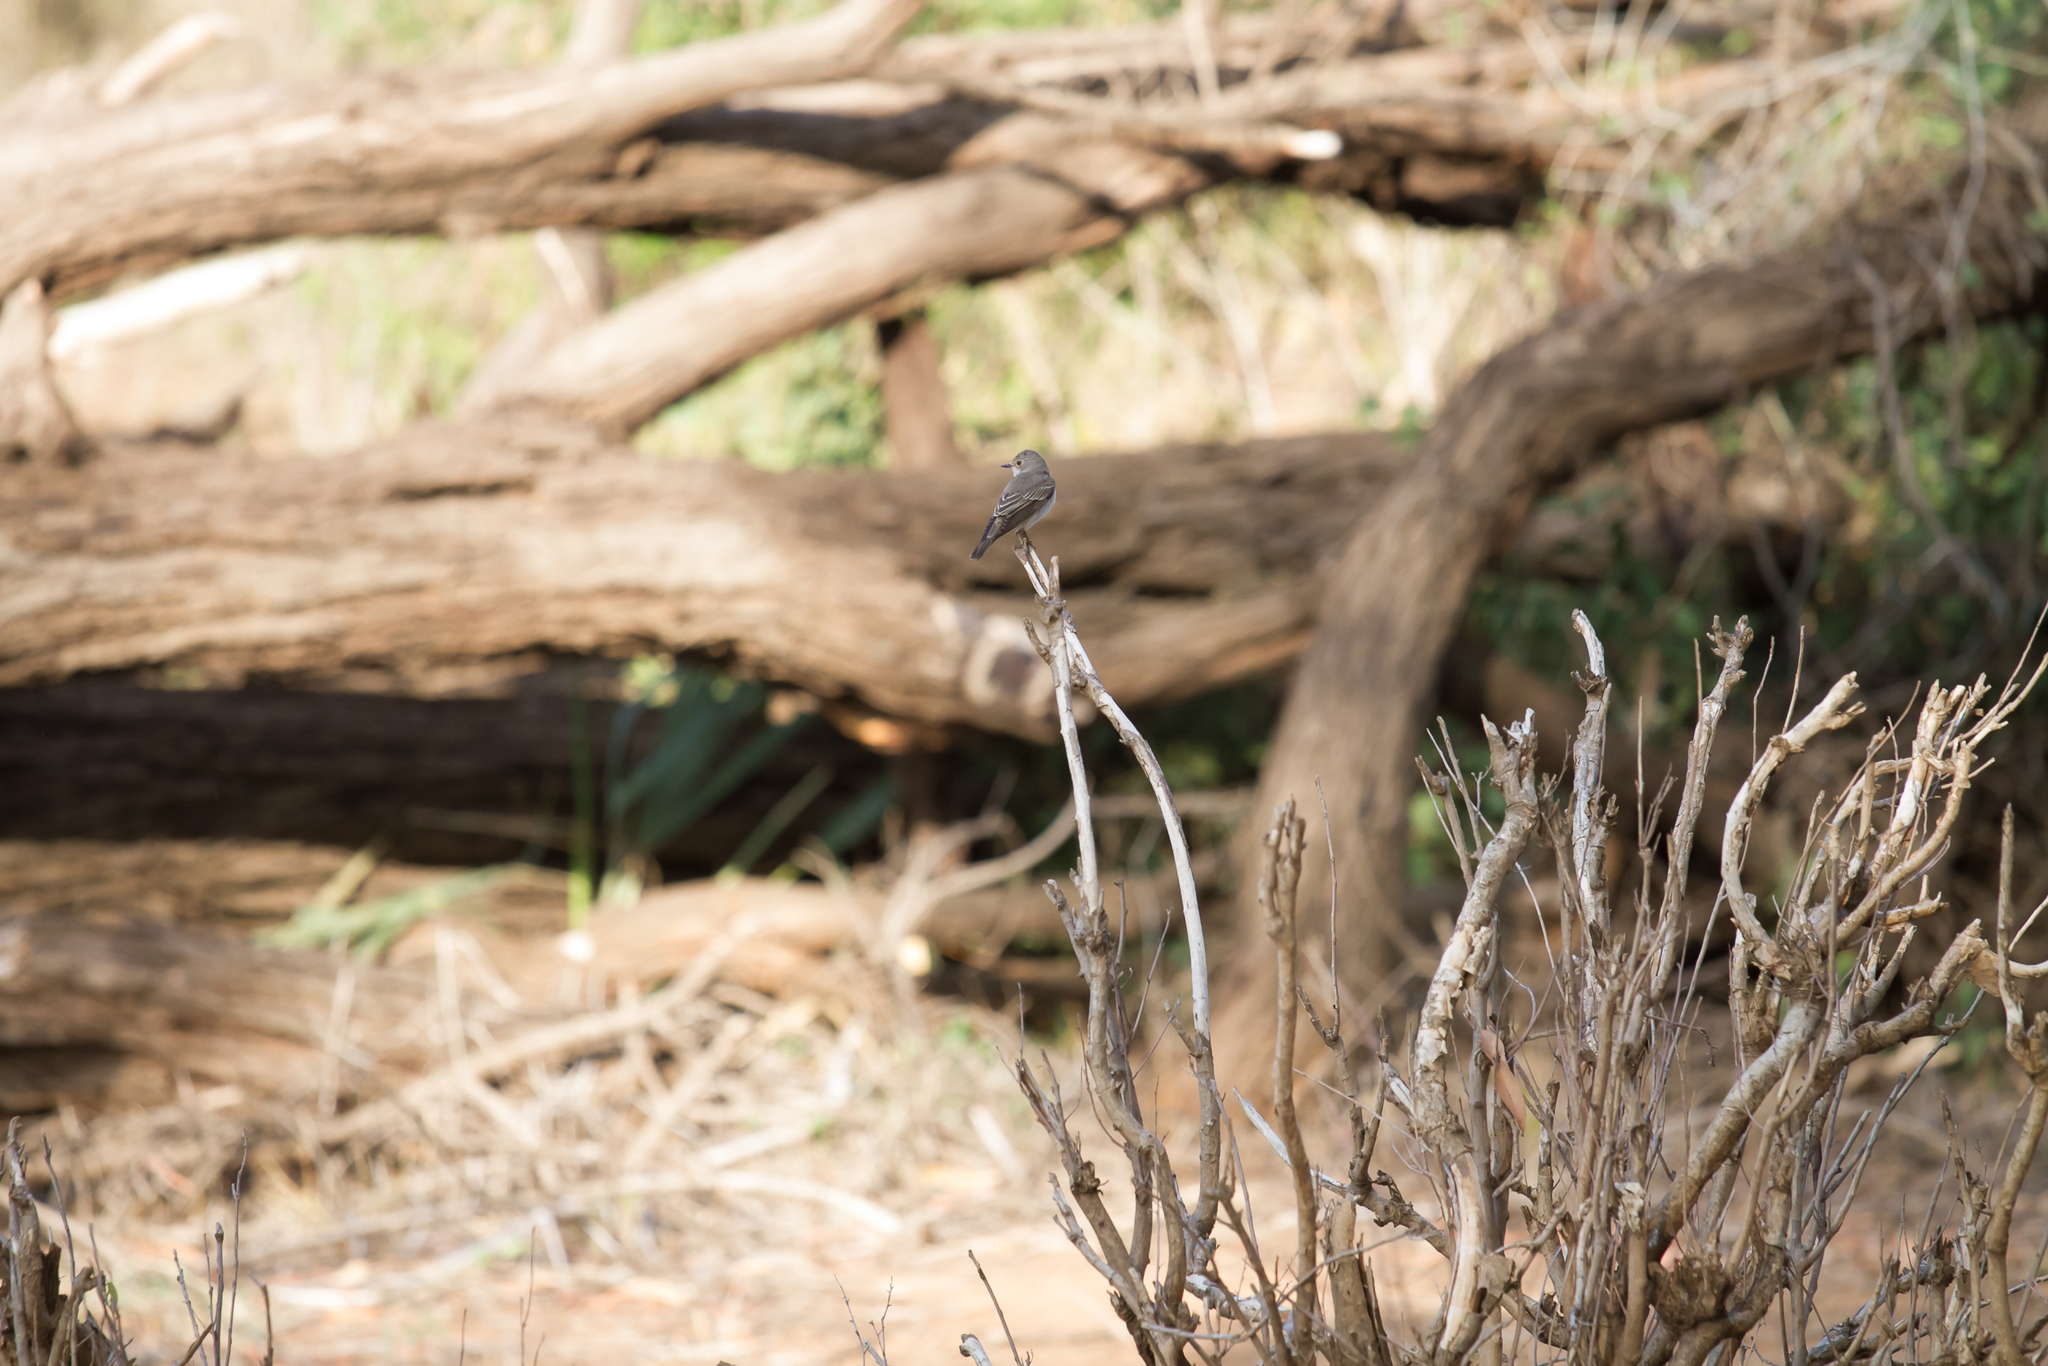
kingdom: Animalia
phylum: Chordata
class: Aves
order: Passeriformes
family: Muscicapidae
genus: Muscicapa
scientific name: Muscicapa striata
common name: Spotted flycatcher
